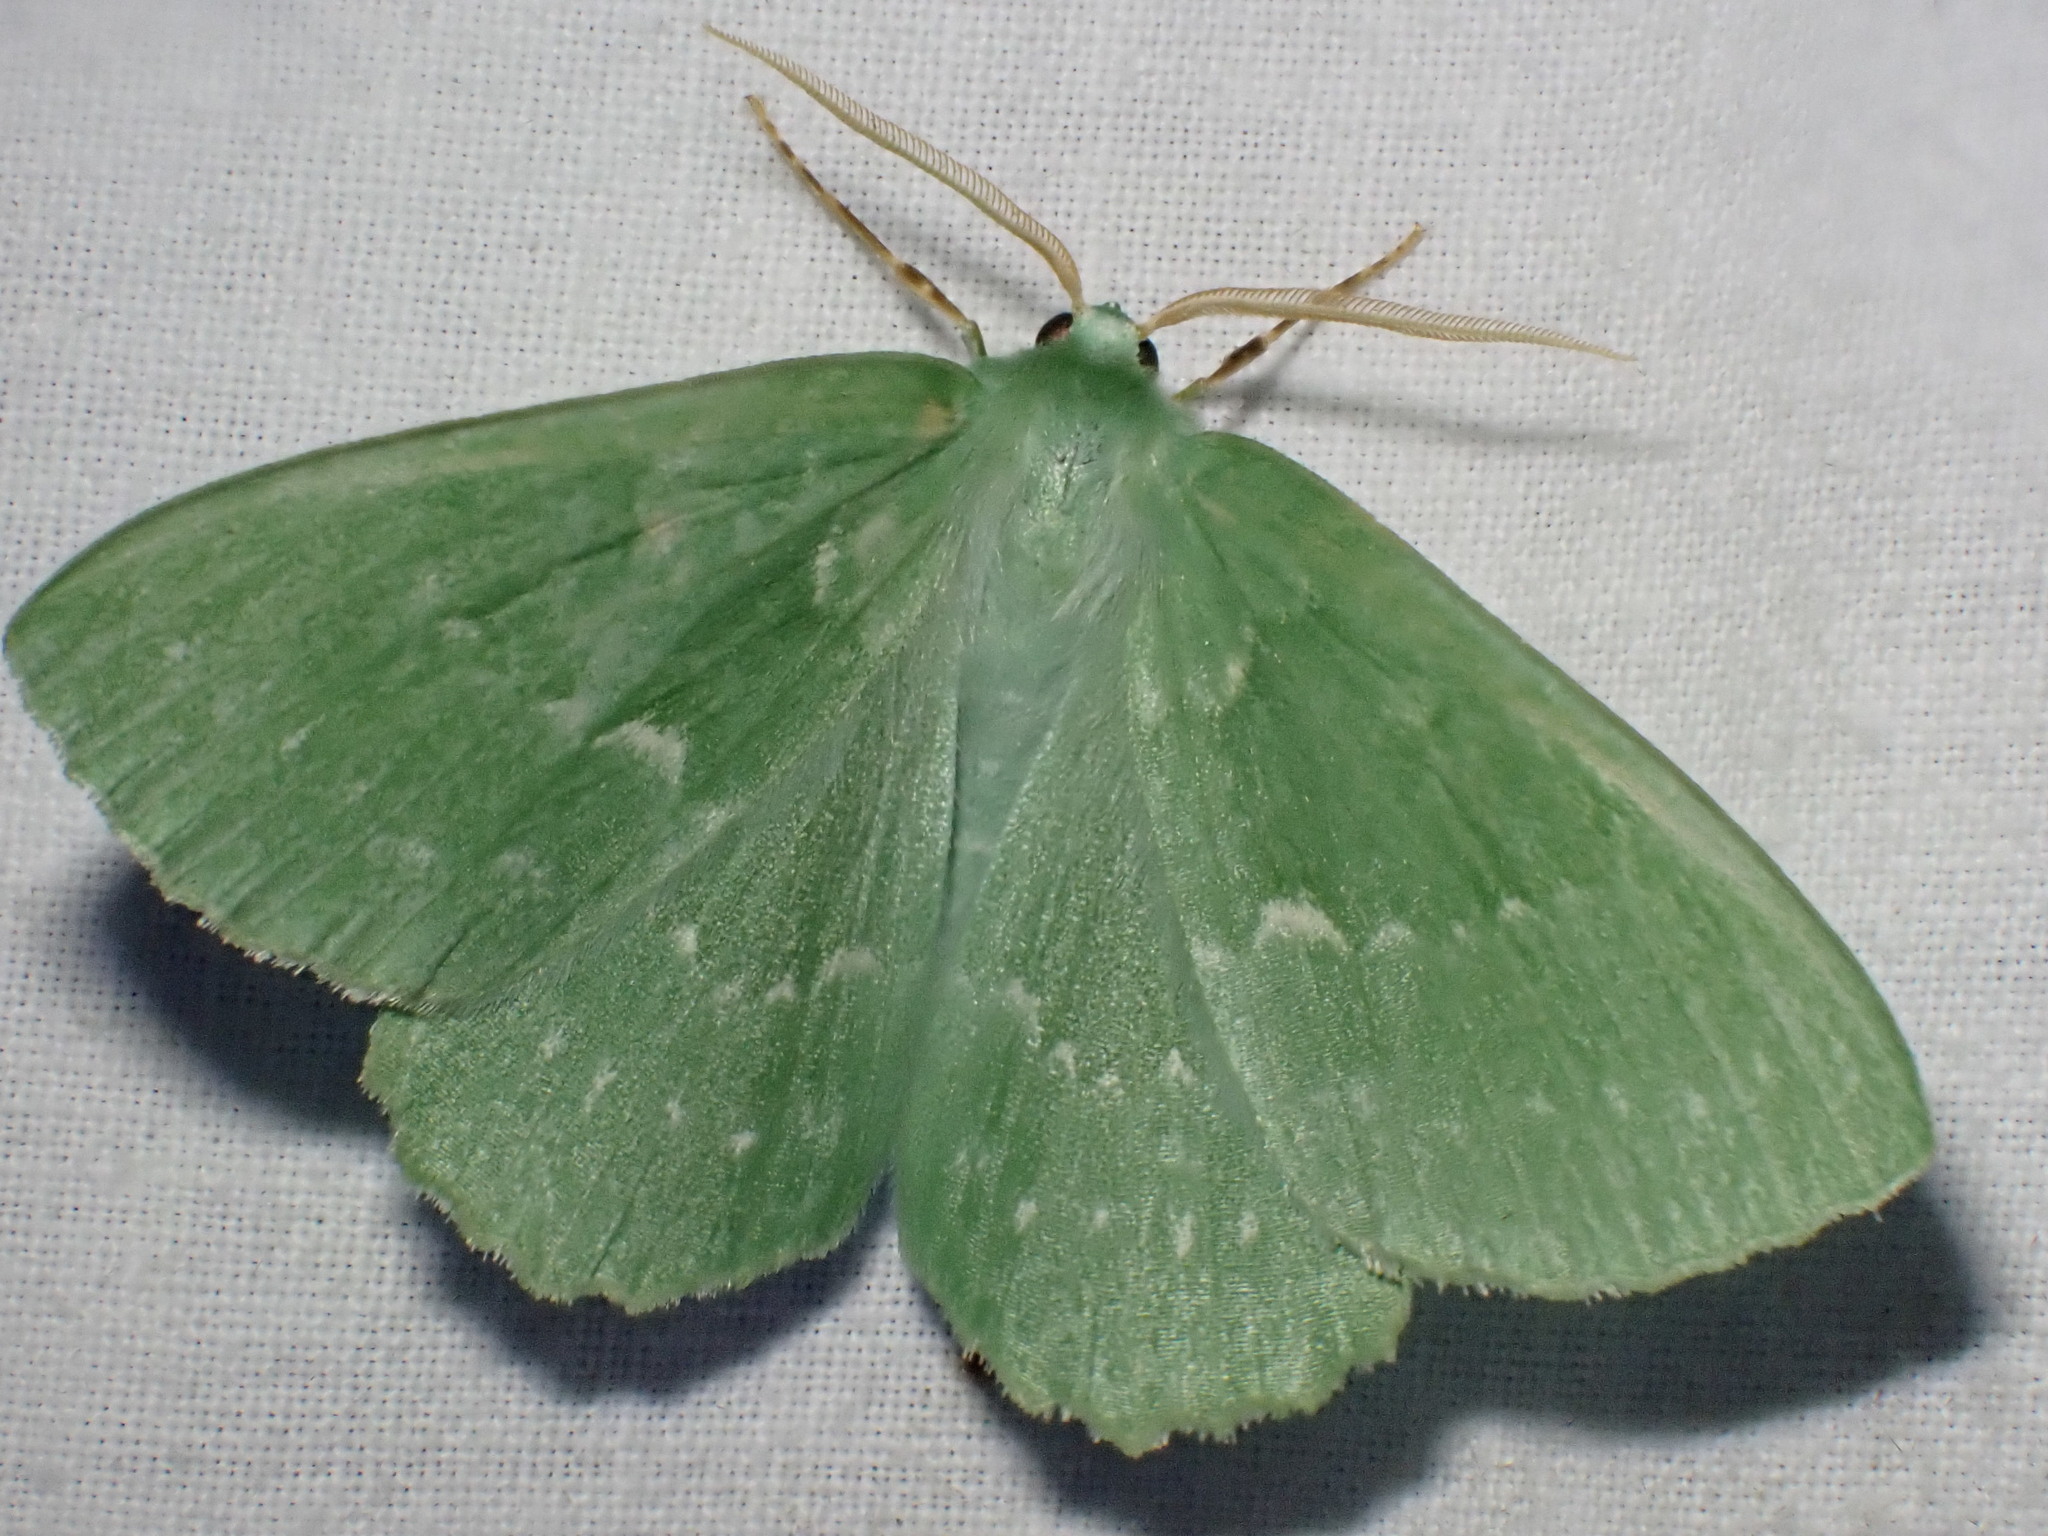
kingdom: Animalia
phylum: Arthropoda
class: Insecta
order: Lepidoptera
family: Geometridae
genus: Geometra
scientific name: Geometra papilionaria
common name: Large emerald
